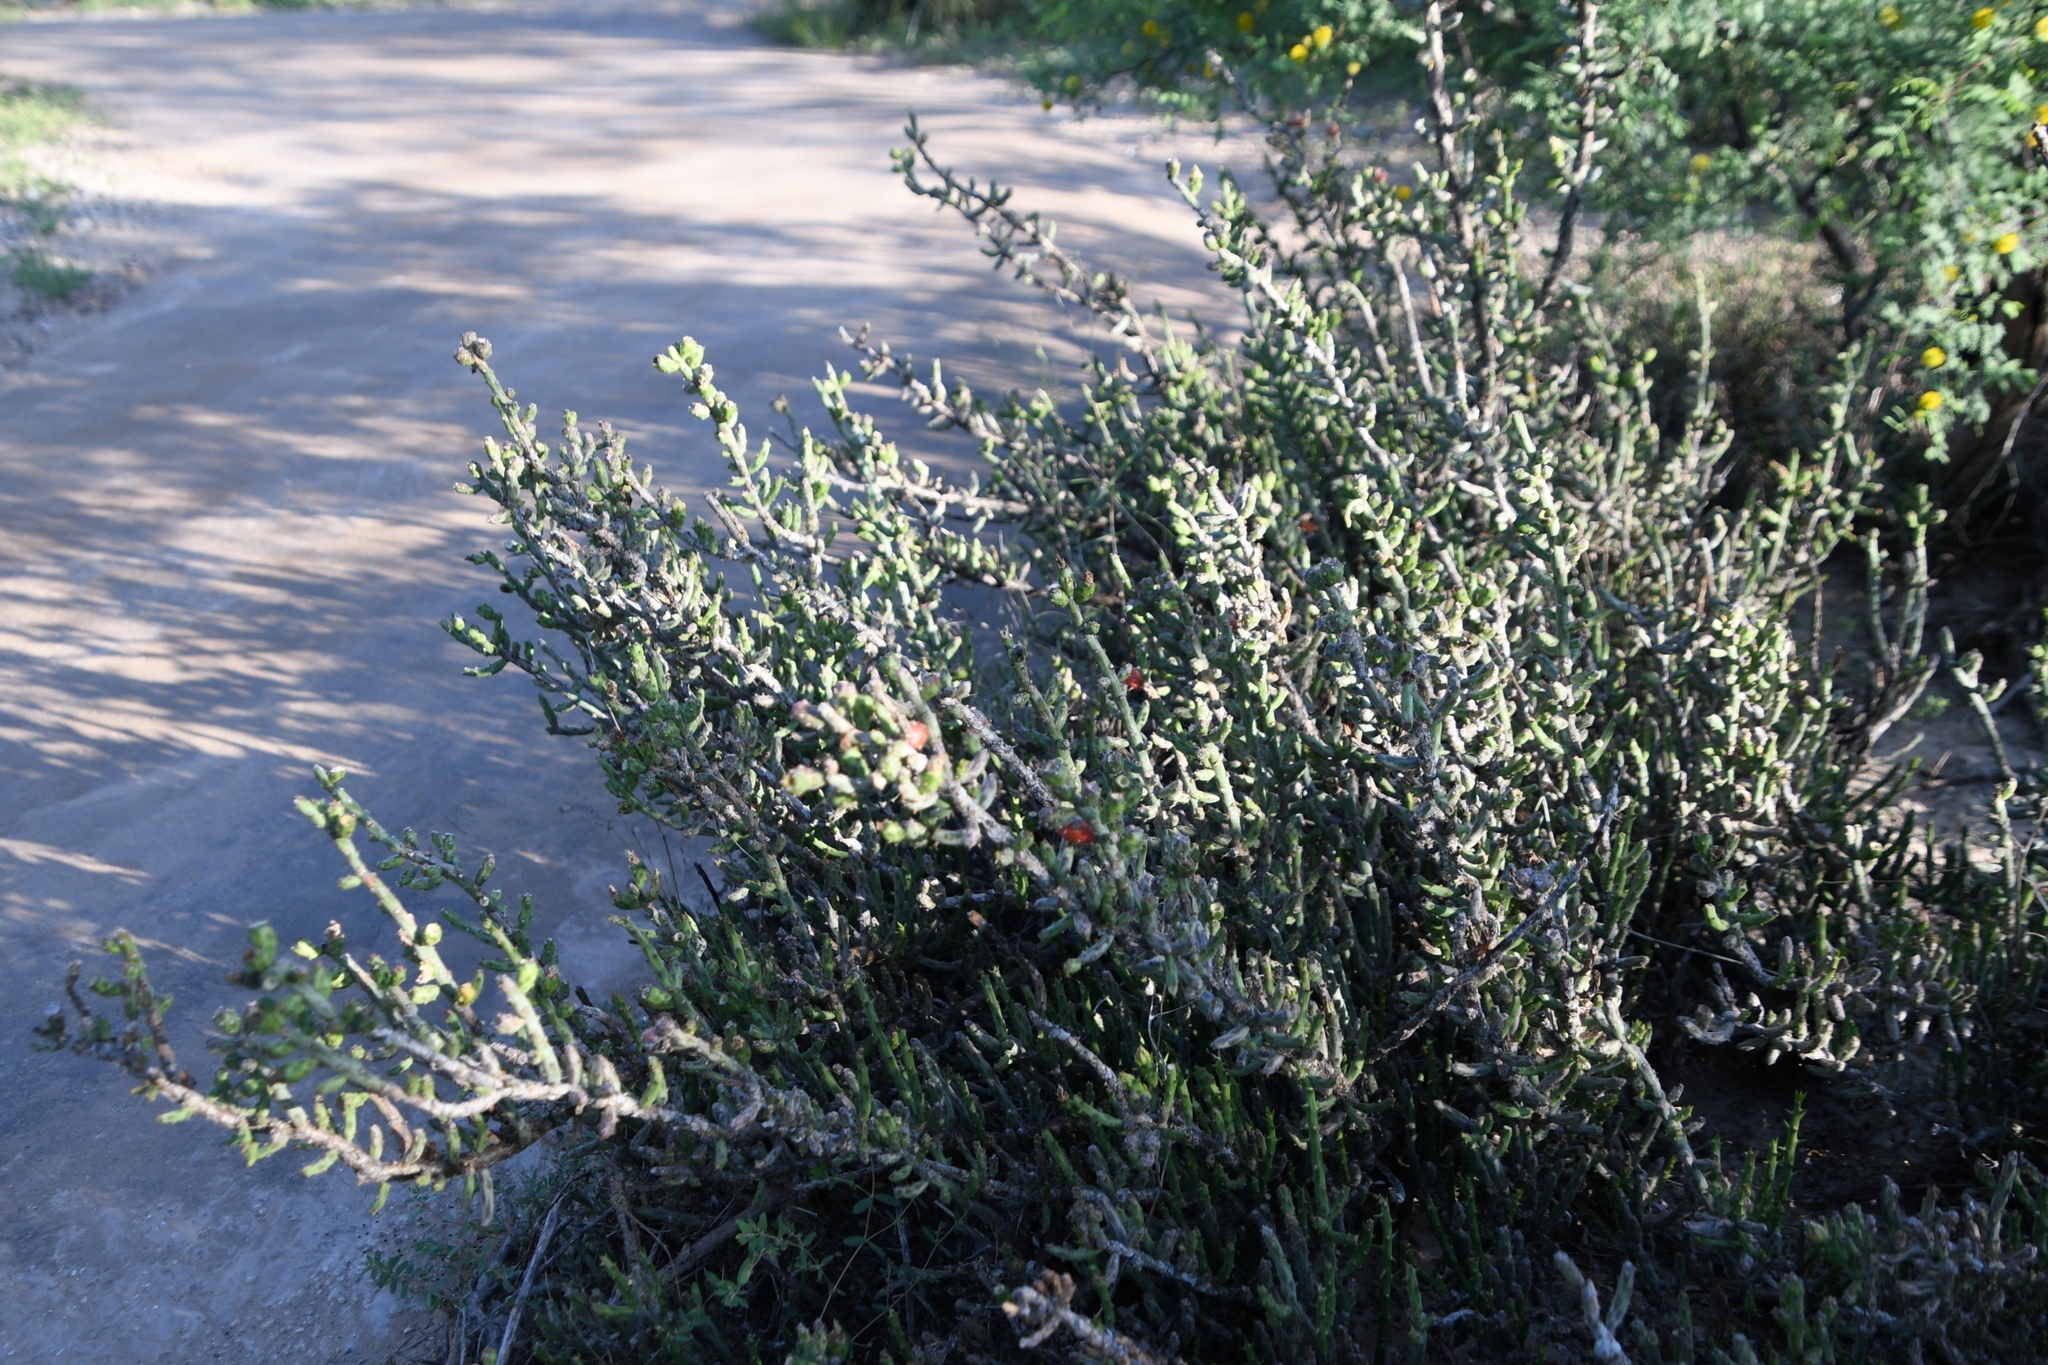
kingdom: Plantae
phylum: Tracheophyta
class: Magnoliopsida
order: Caryophyllales
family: Cactaceae
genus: Cylindropuntia
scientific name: Cylindropuntia leptocaulis
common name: Christmas cactus
